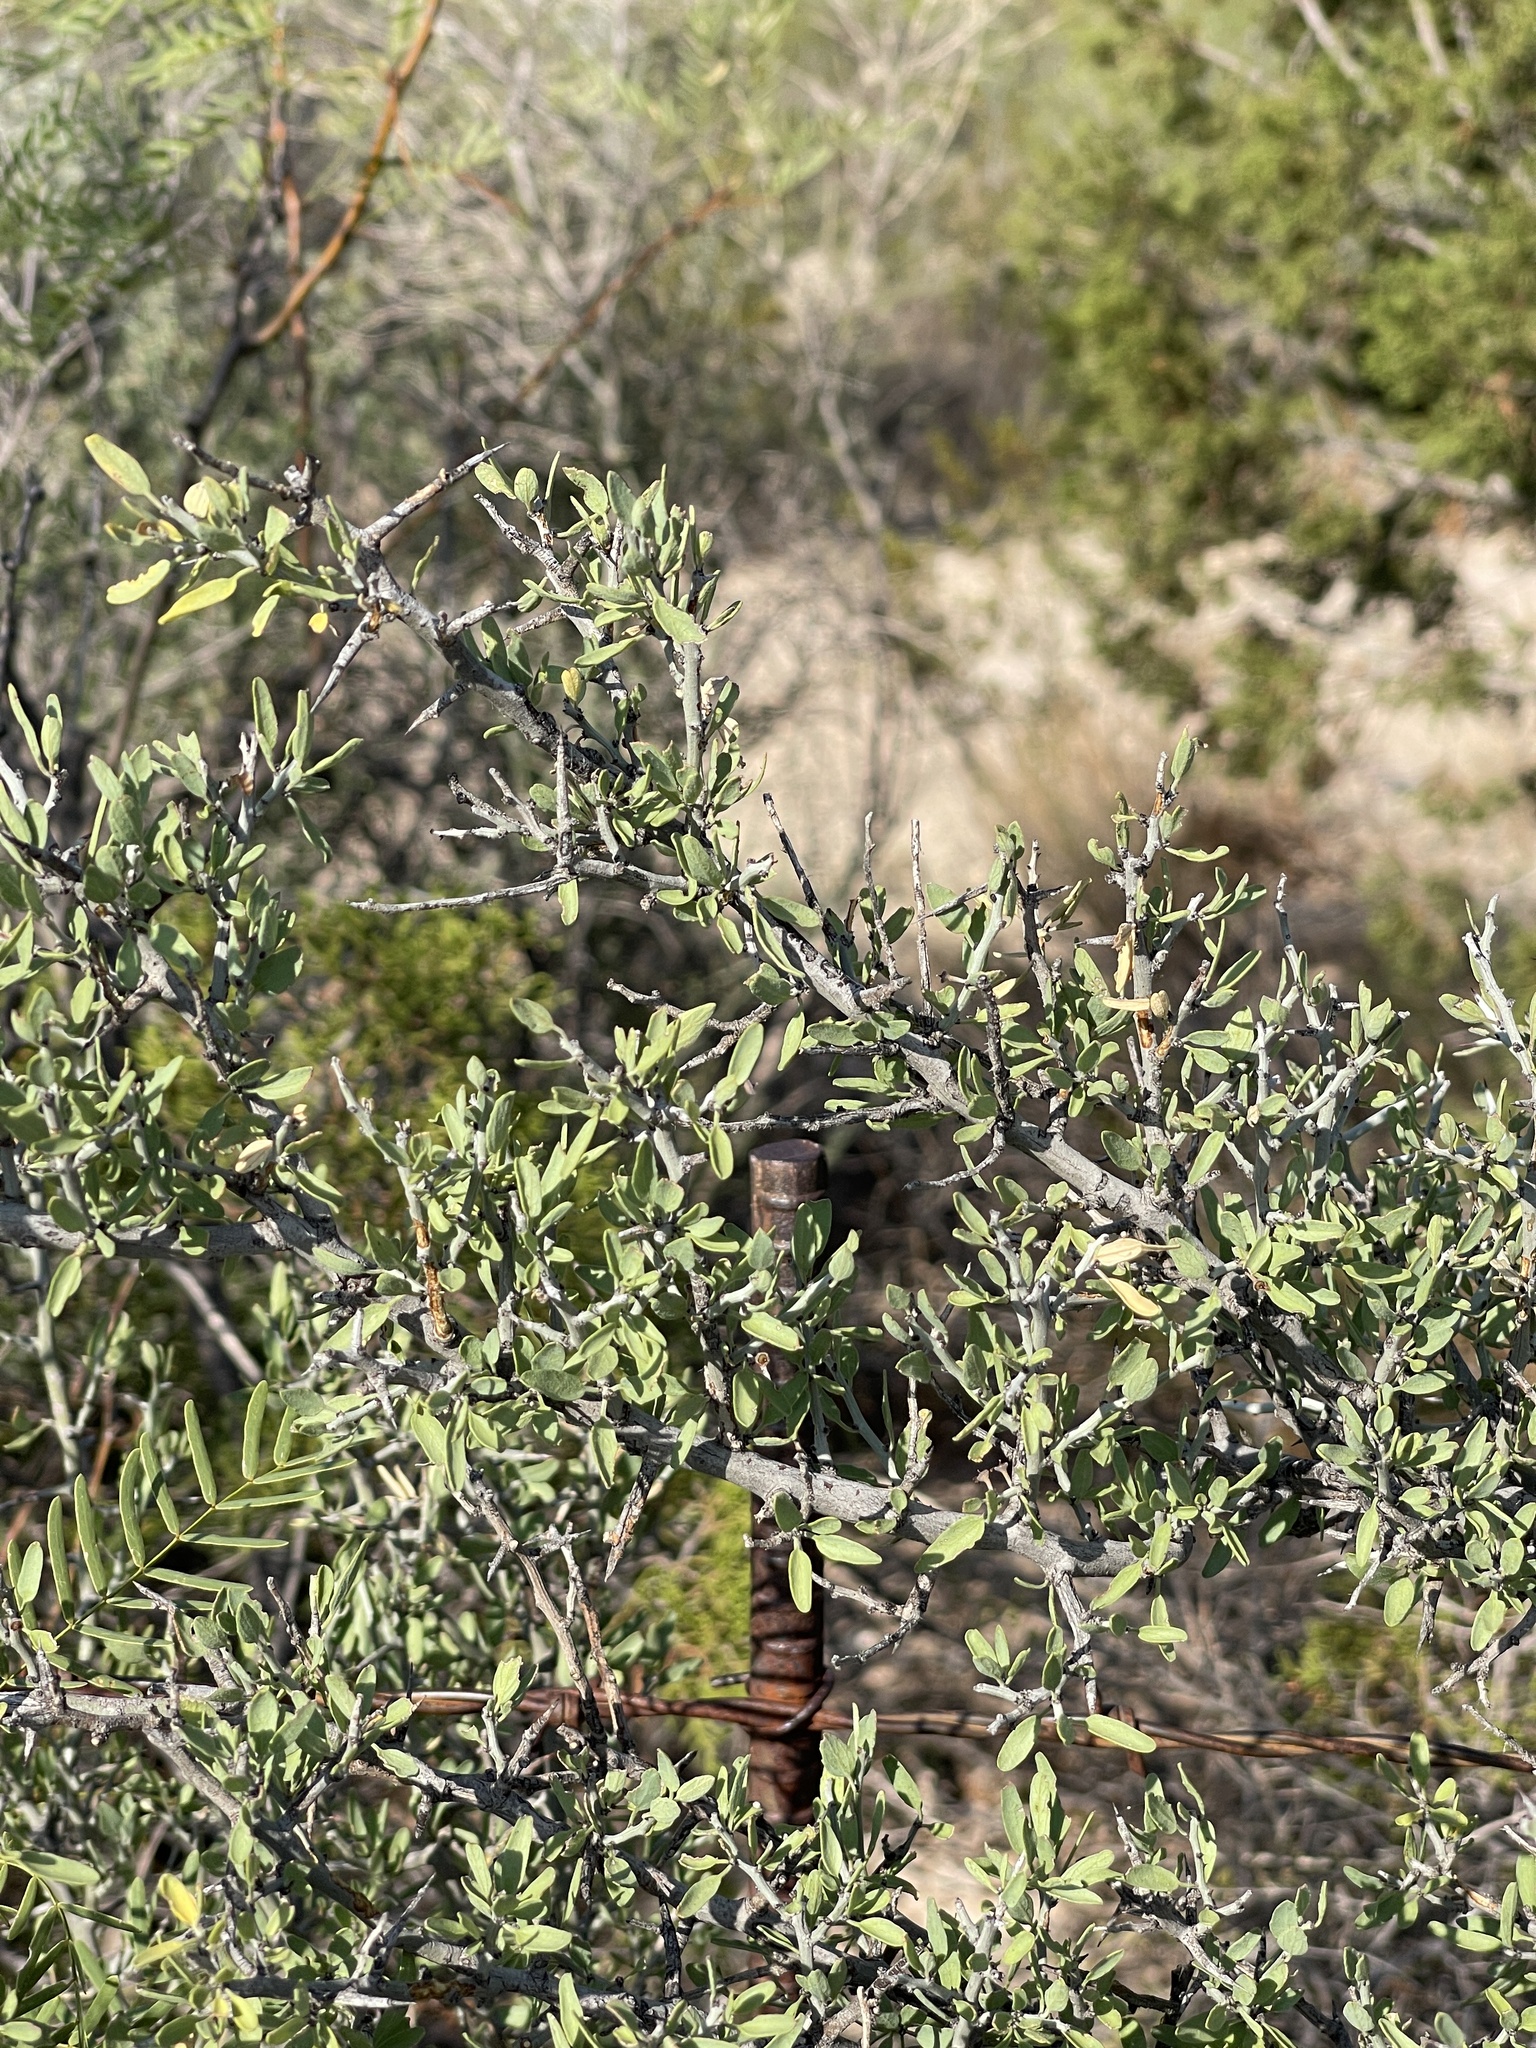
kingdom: Plantae
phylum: Tracheophyta
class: Magnoliopsida
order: Rosales
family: Rhamnaceae
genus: Sarcomphalus
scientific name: Sarcomphalus obtusifolius
